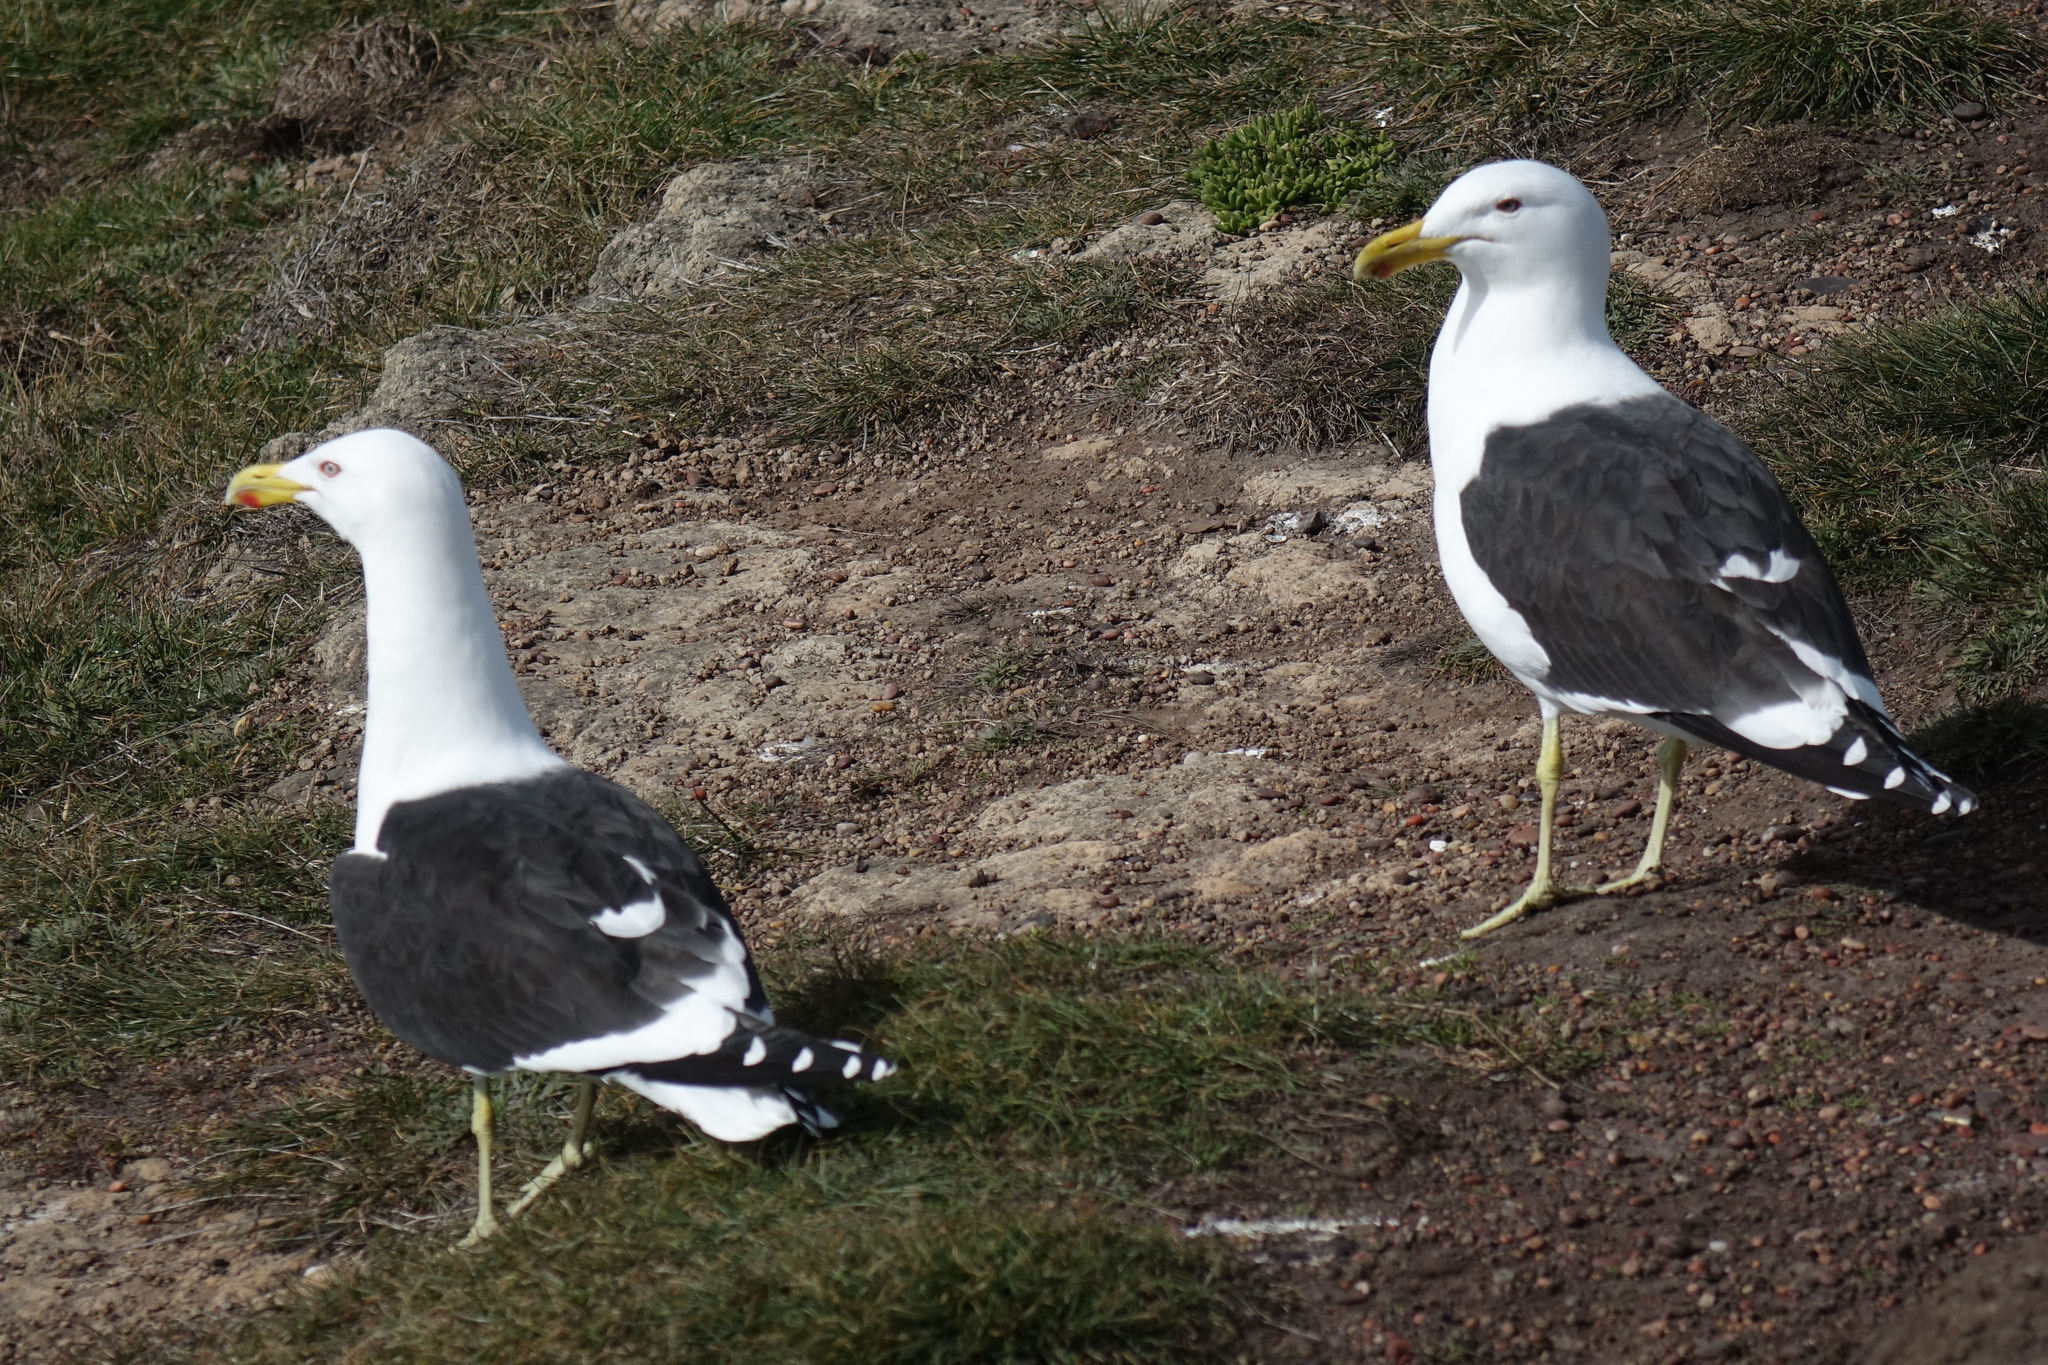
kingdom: Animalia
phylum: Chordata
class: Aves
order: Charadriiformes
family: Laridae
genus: Larus
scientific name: Larus dominicanus
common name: Kelp gull
